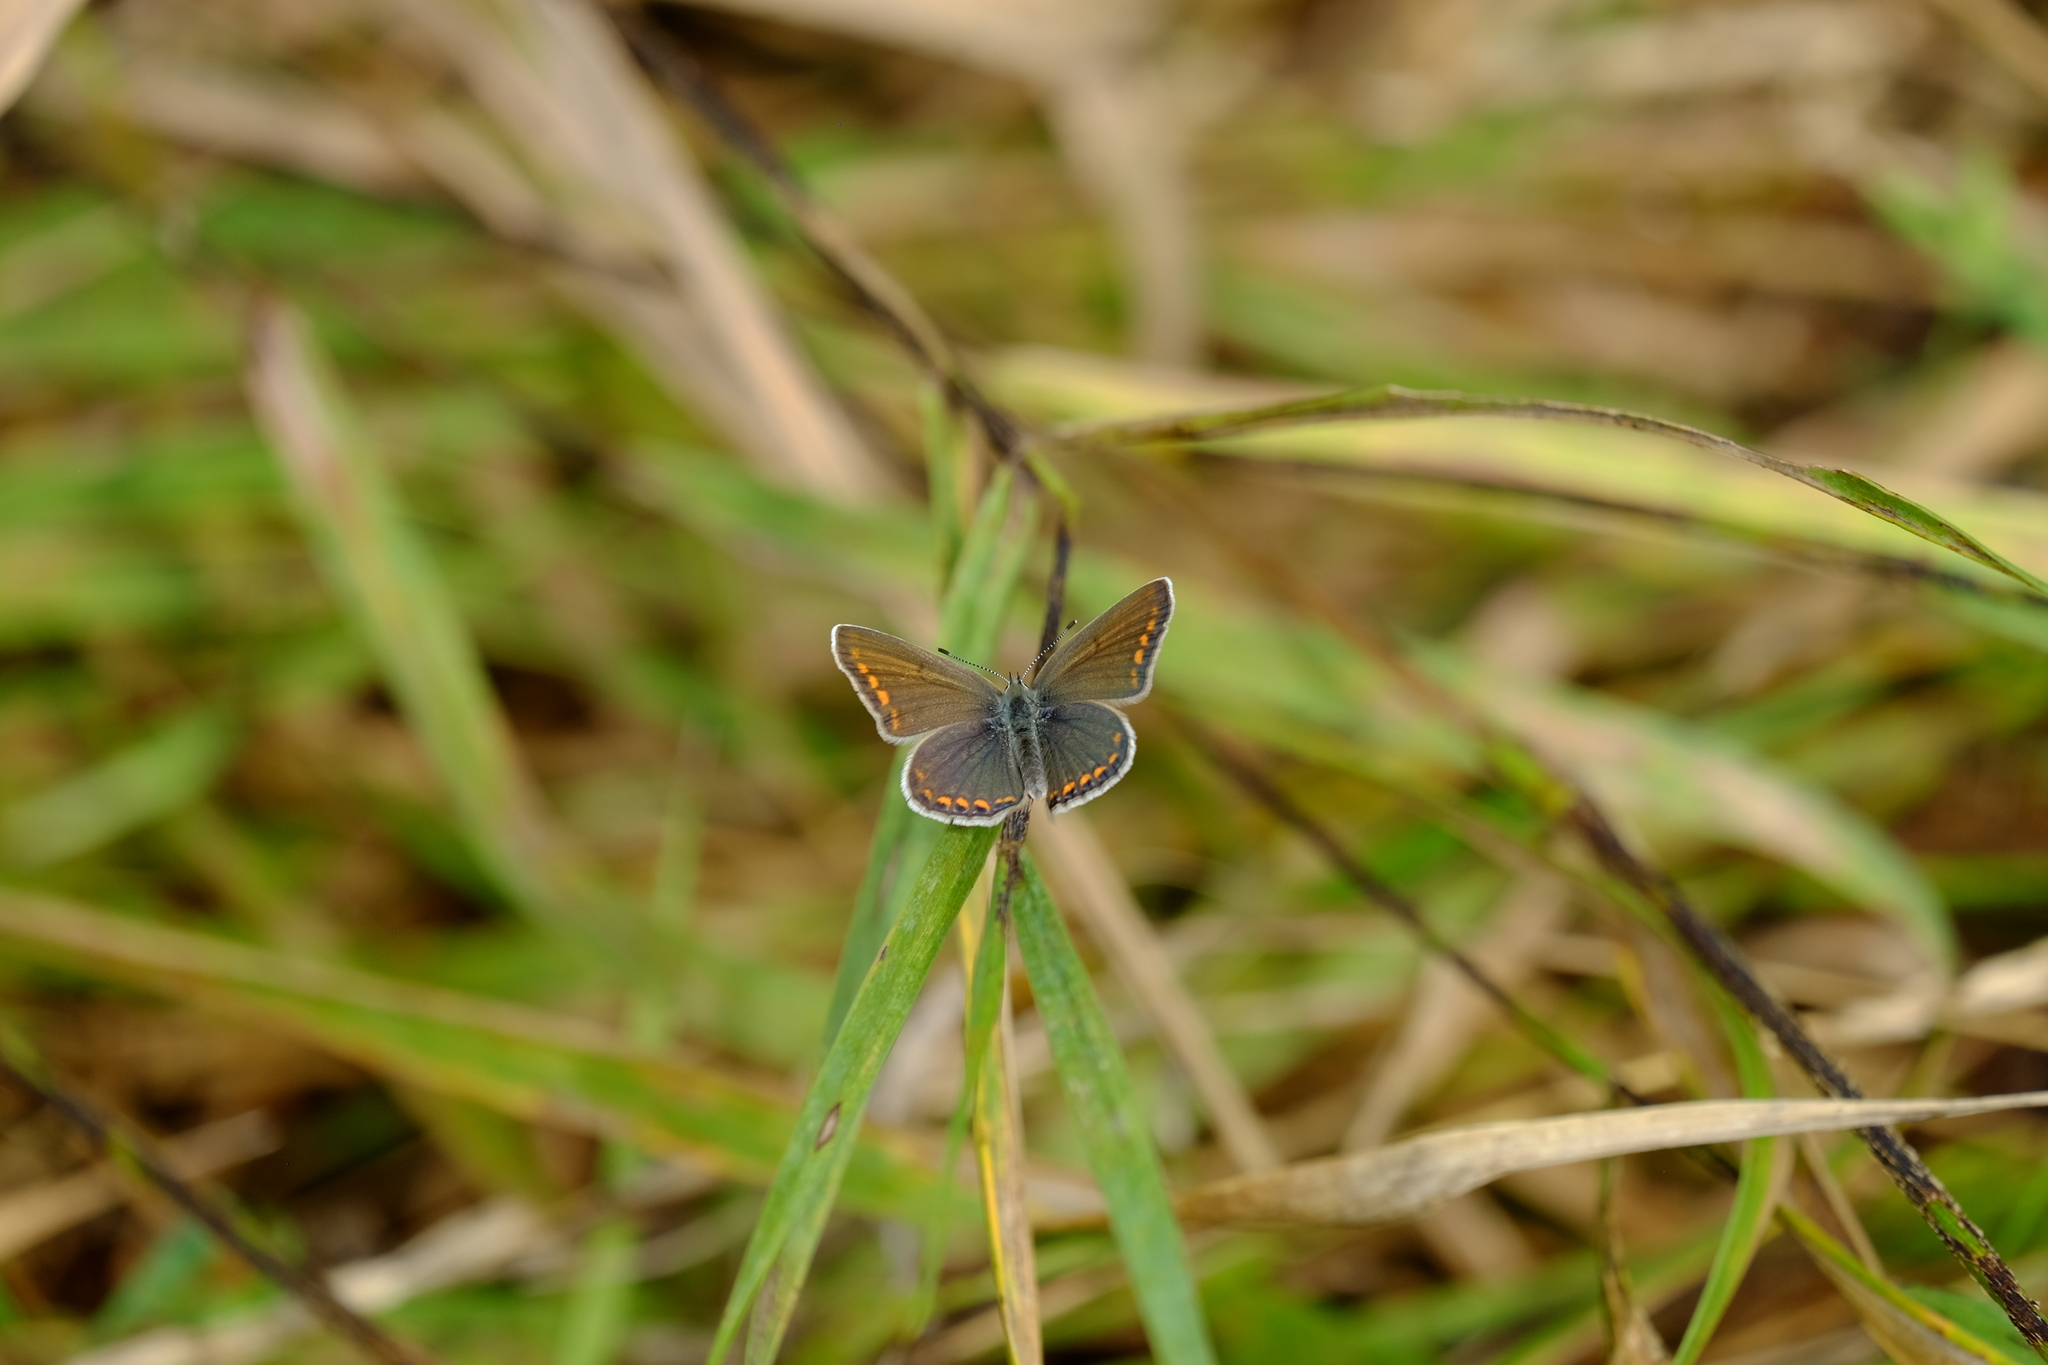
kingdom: Animalia
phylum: Arthropoda
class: Insecta
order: Lepidoptera
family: Lycaenidae
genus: Polyommatus
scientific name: Polyommatus icarus
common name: Common blue
